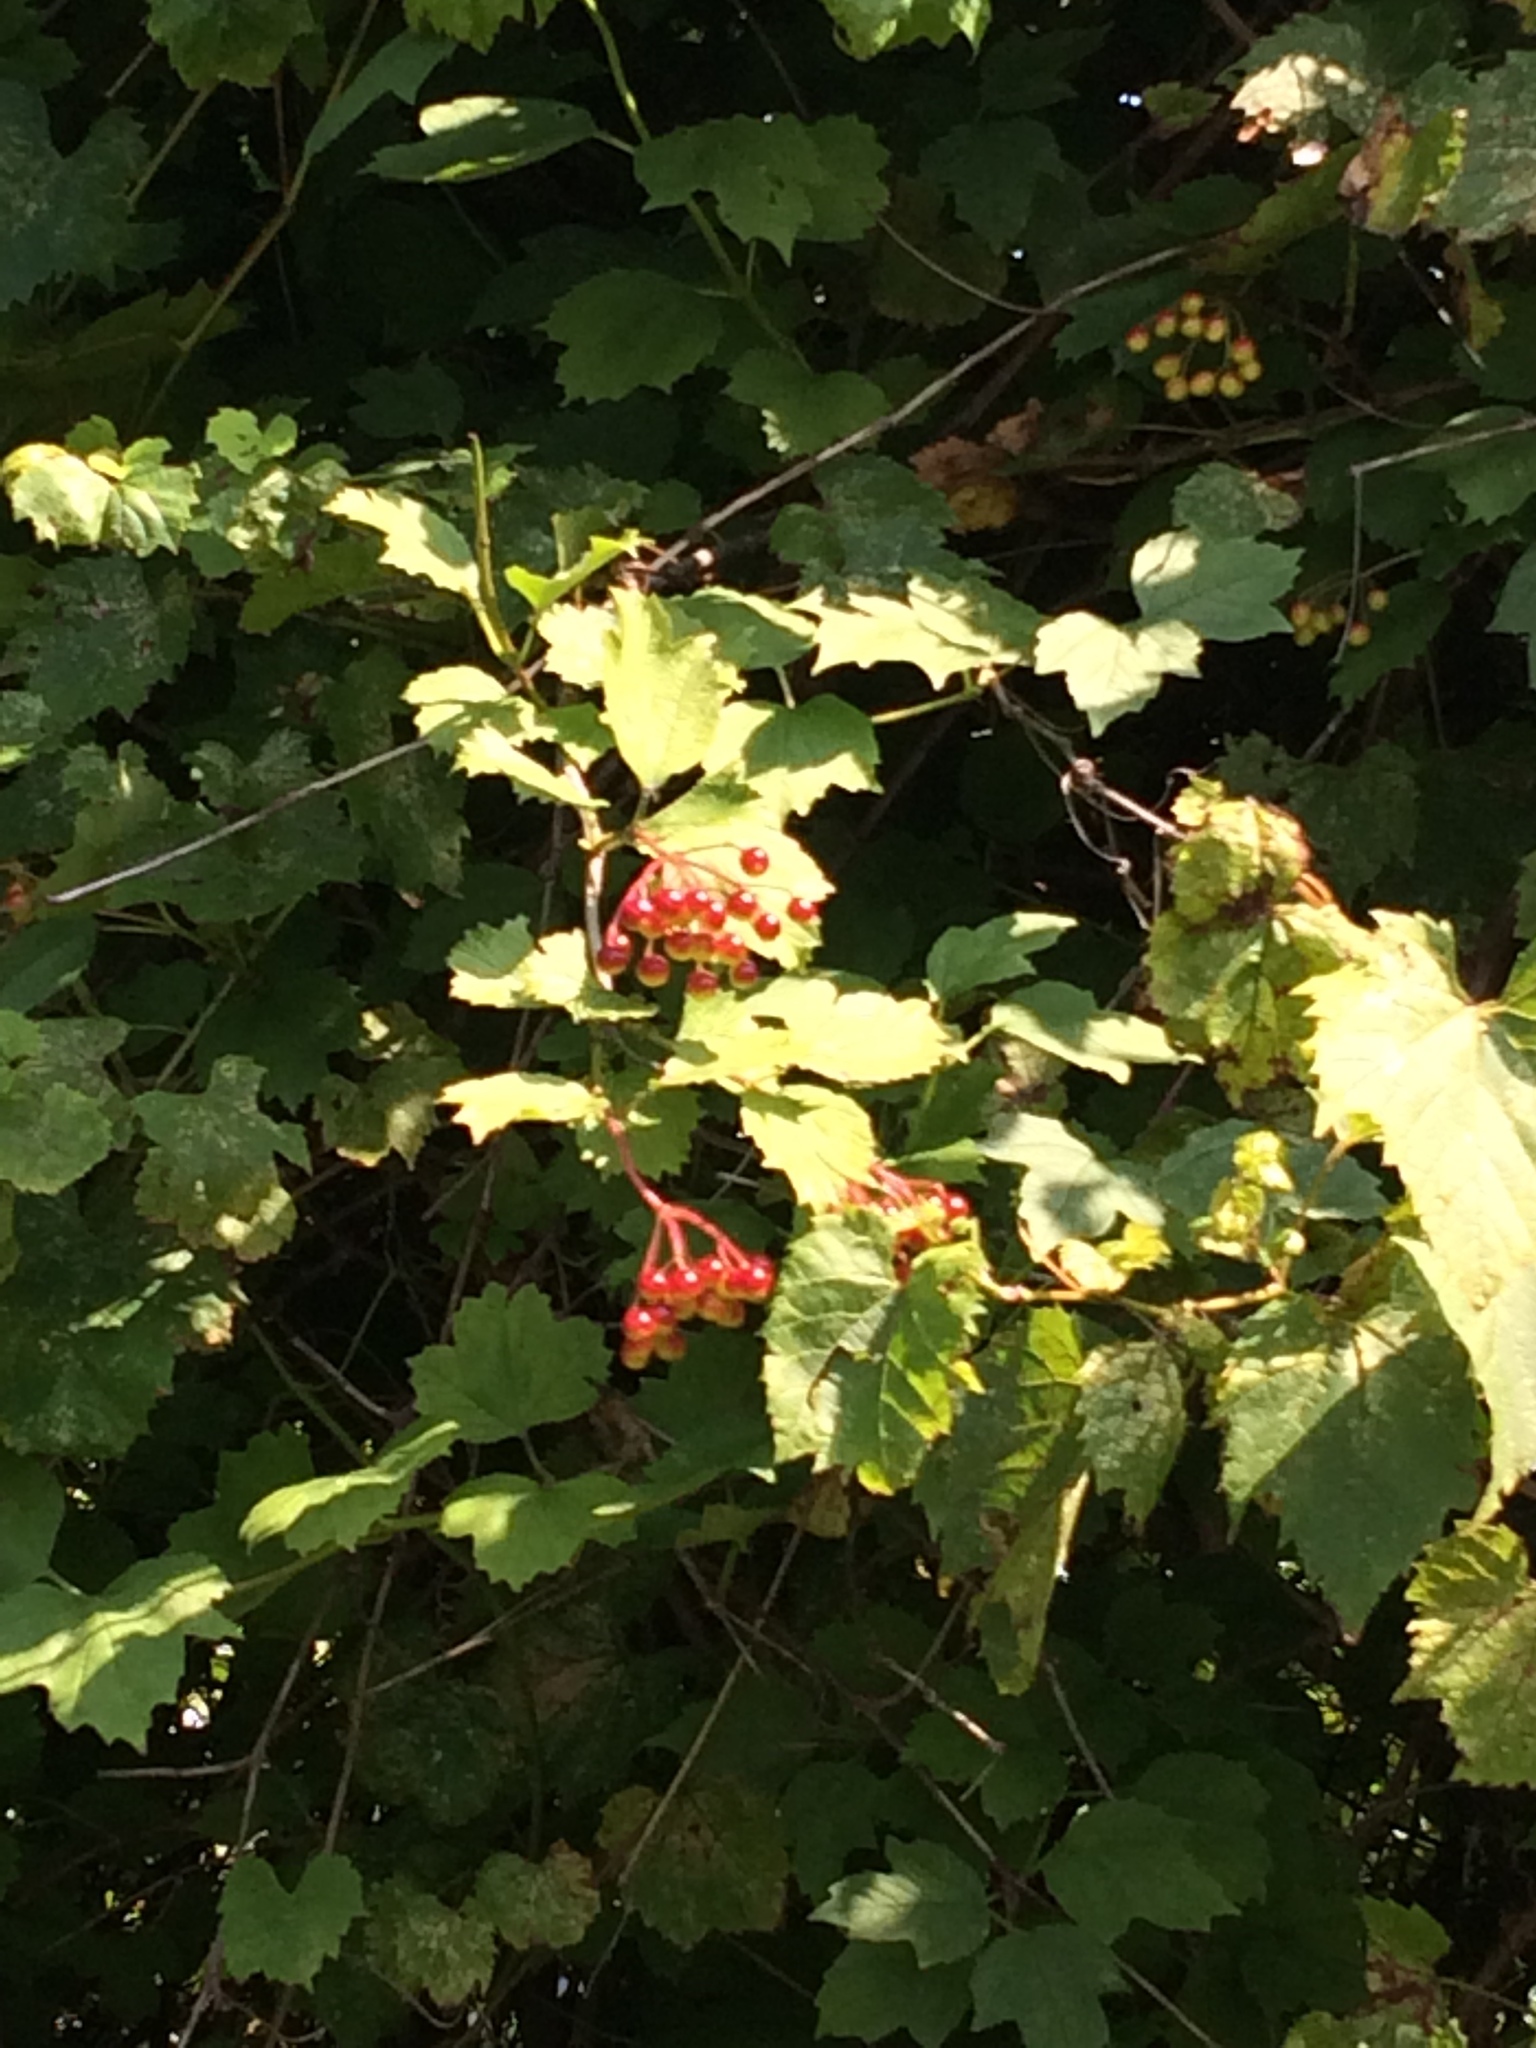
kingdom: Plantae
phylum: Tracheophyta
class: Magnoliopsida
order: Dipsacales
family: Viburnaceae
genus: Viburnum
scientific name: Viburnum opulus
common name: Guelder-rose
